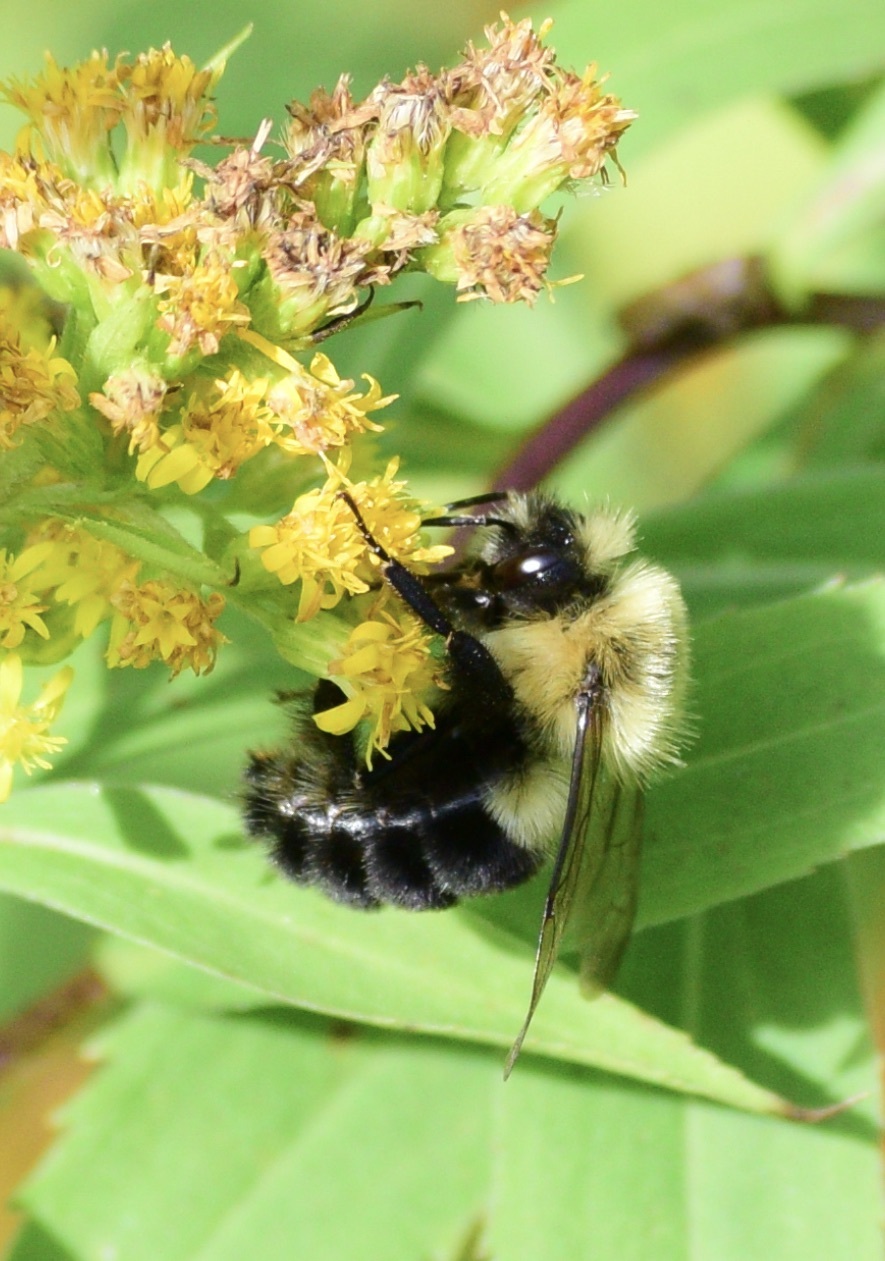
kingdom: Animalia
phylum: Arthropoda
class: Insecta
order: Hymenoptera
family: Apidae
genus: Bombus
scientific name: Bombus impatiens
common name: Common eastern bumble bee
